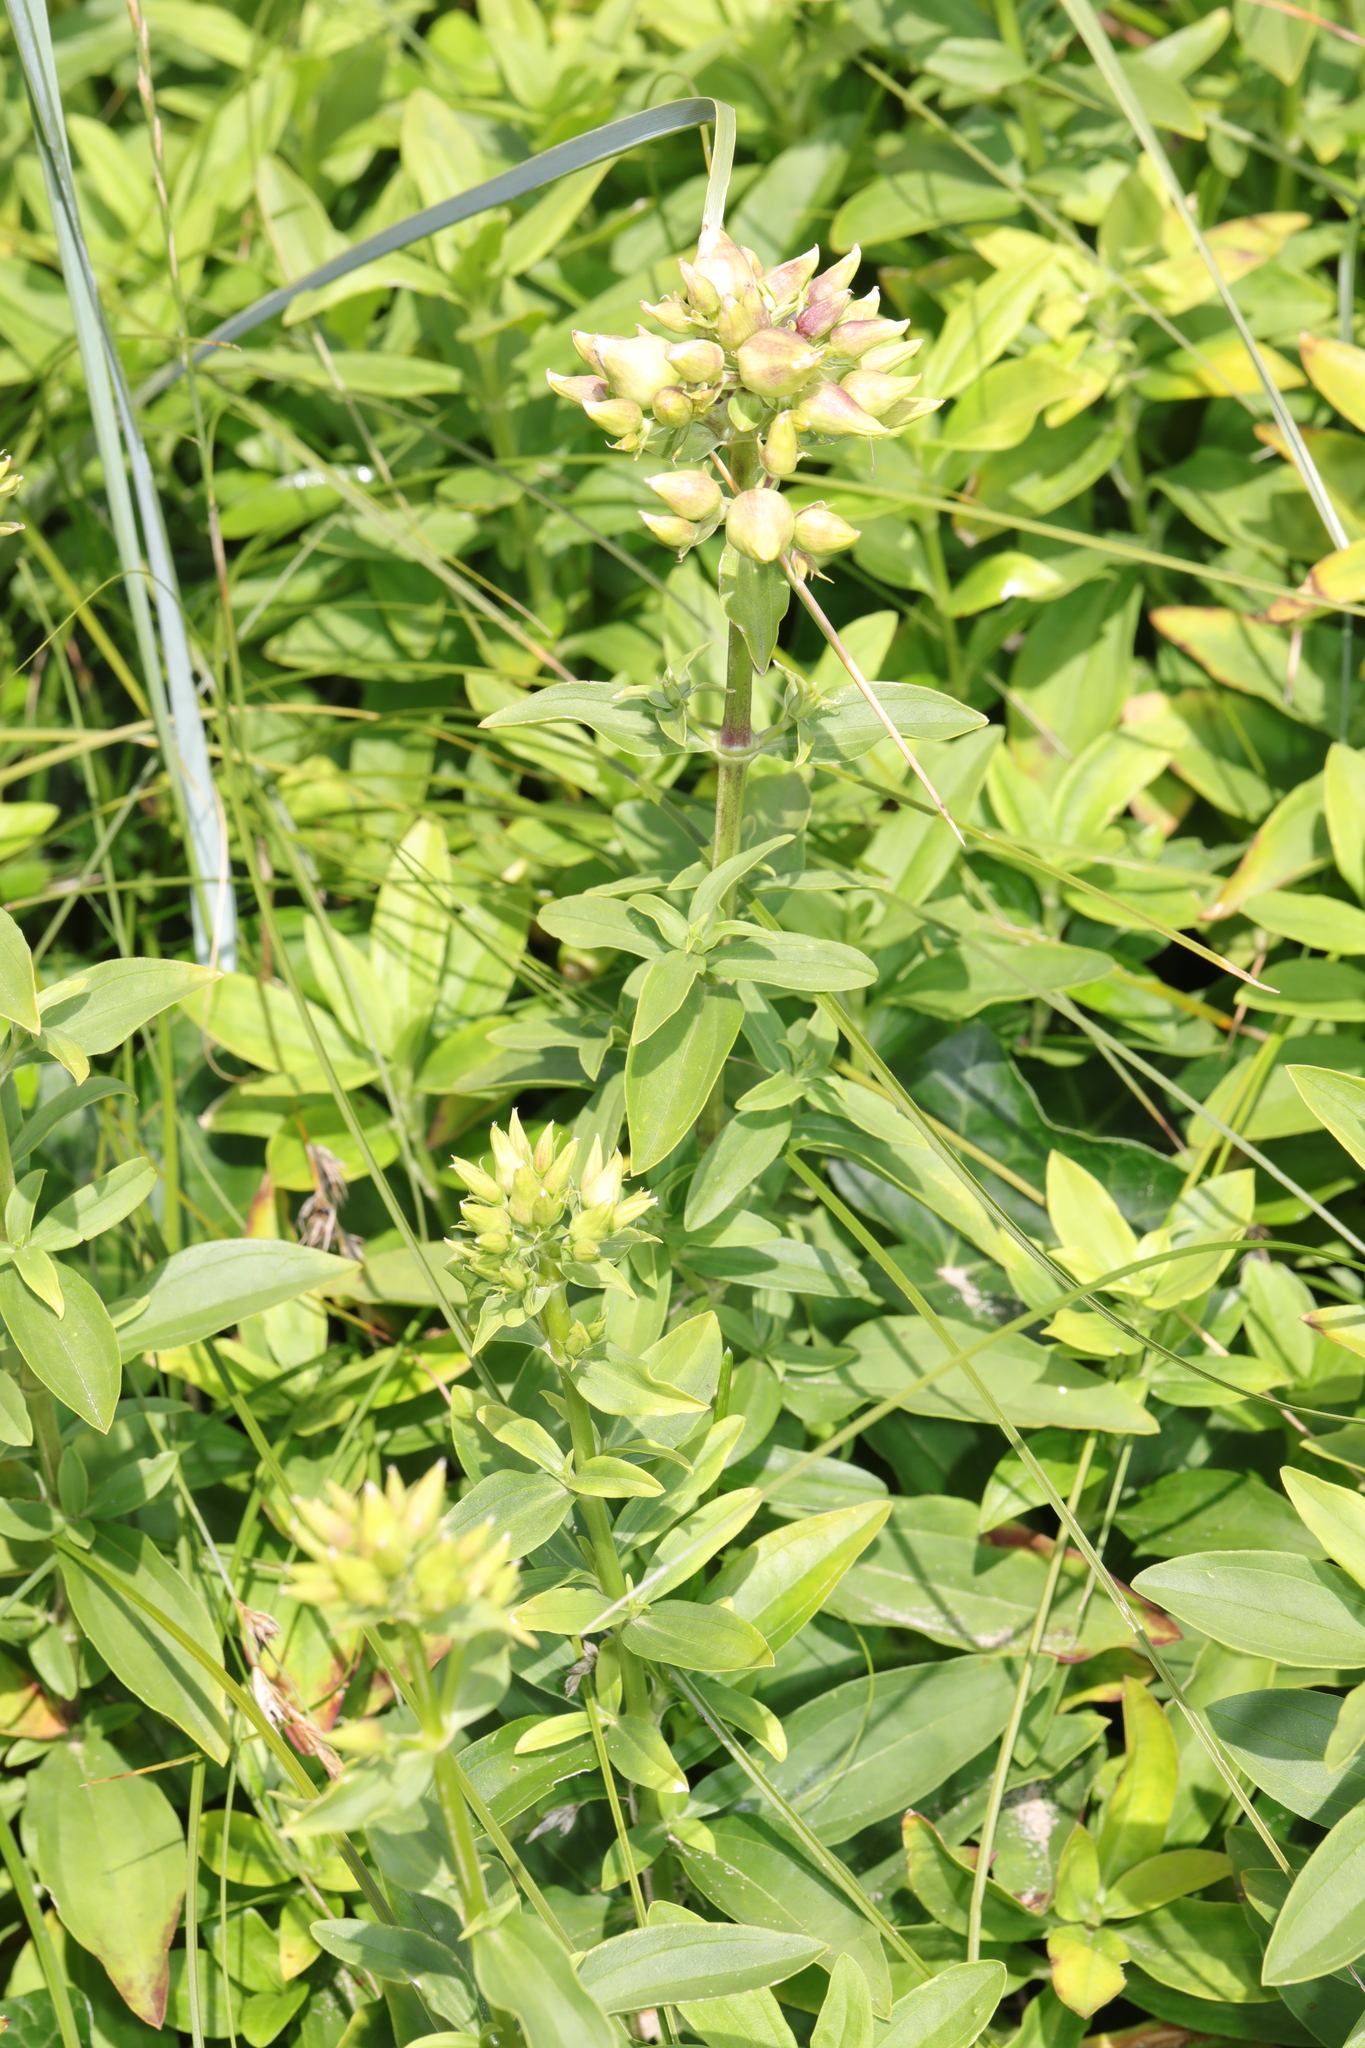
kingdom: Plantae
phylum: Tracheophyta
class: Magnoliopsida
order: Caryophyllales
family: Caryophyllaceae
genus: Saponaria
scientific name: Saponaria officinalis
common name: Soapwort
